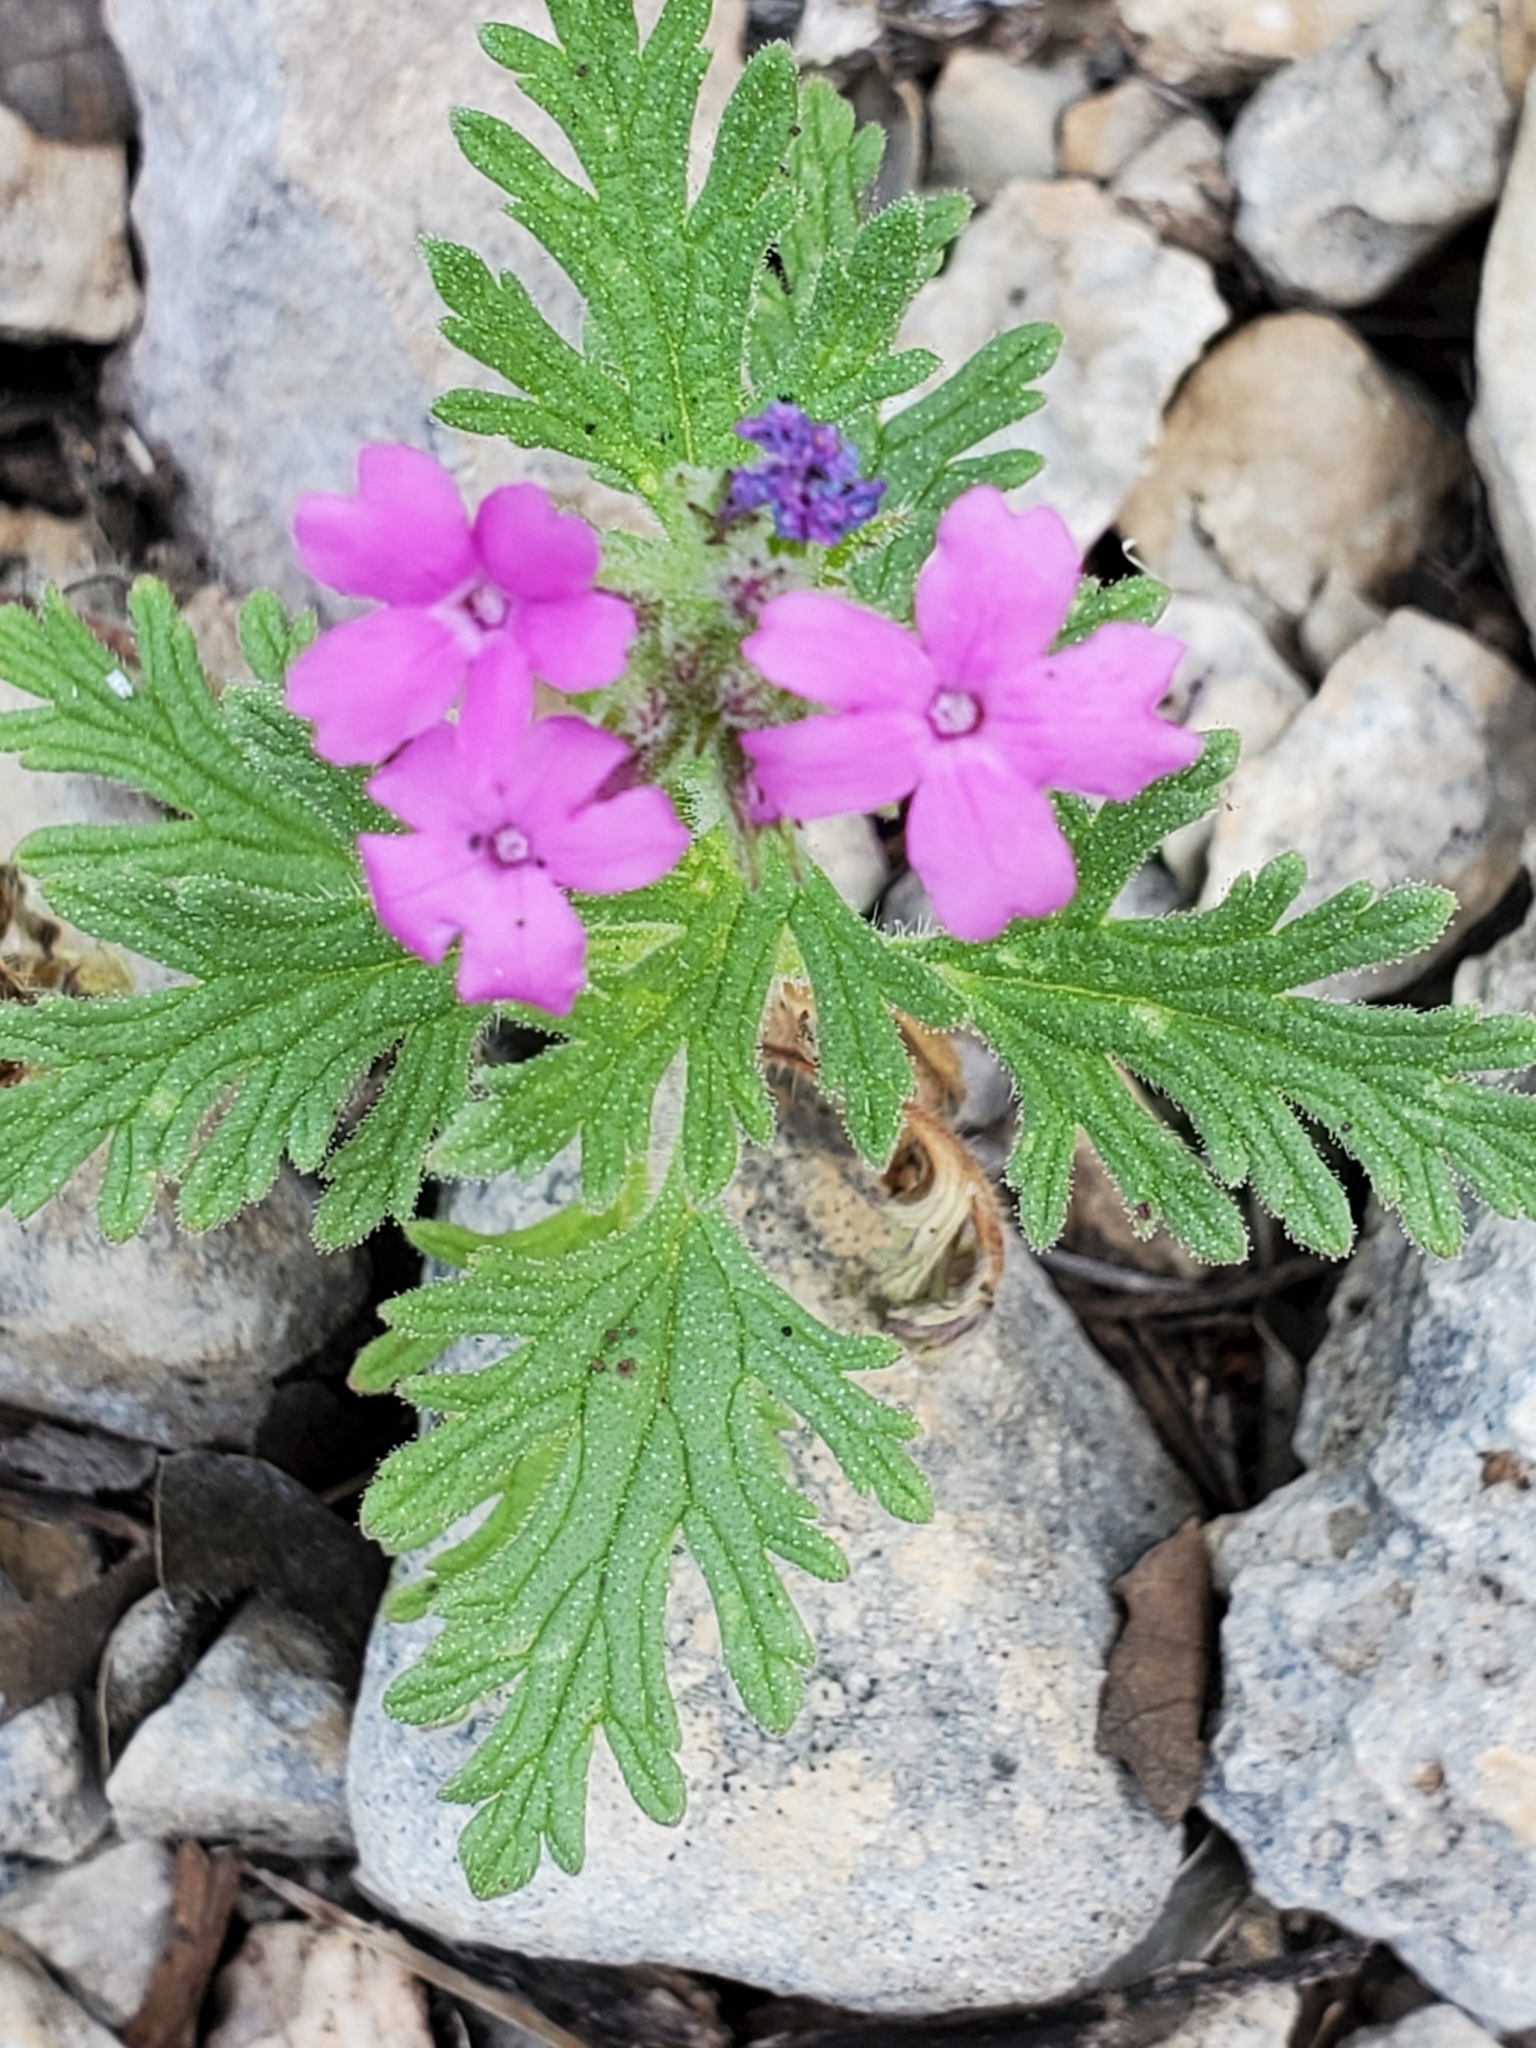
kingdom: Plantae
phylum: Tracheophyta
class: Magnoliopsida
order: Lamiales
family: Verbenaceae
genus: Verbena
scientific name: Verbena tumidula
